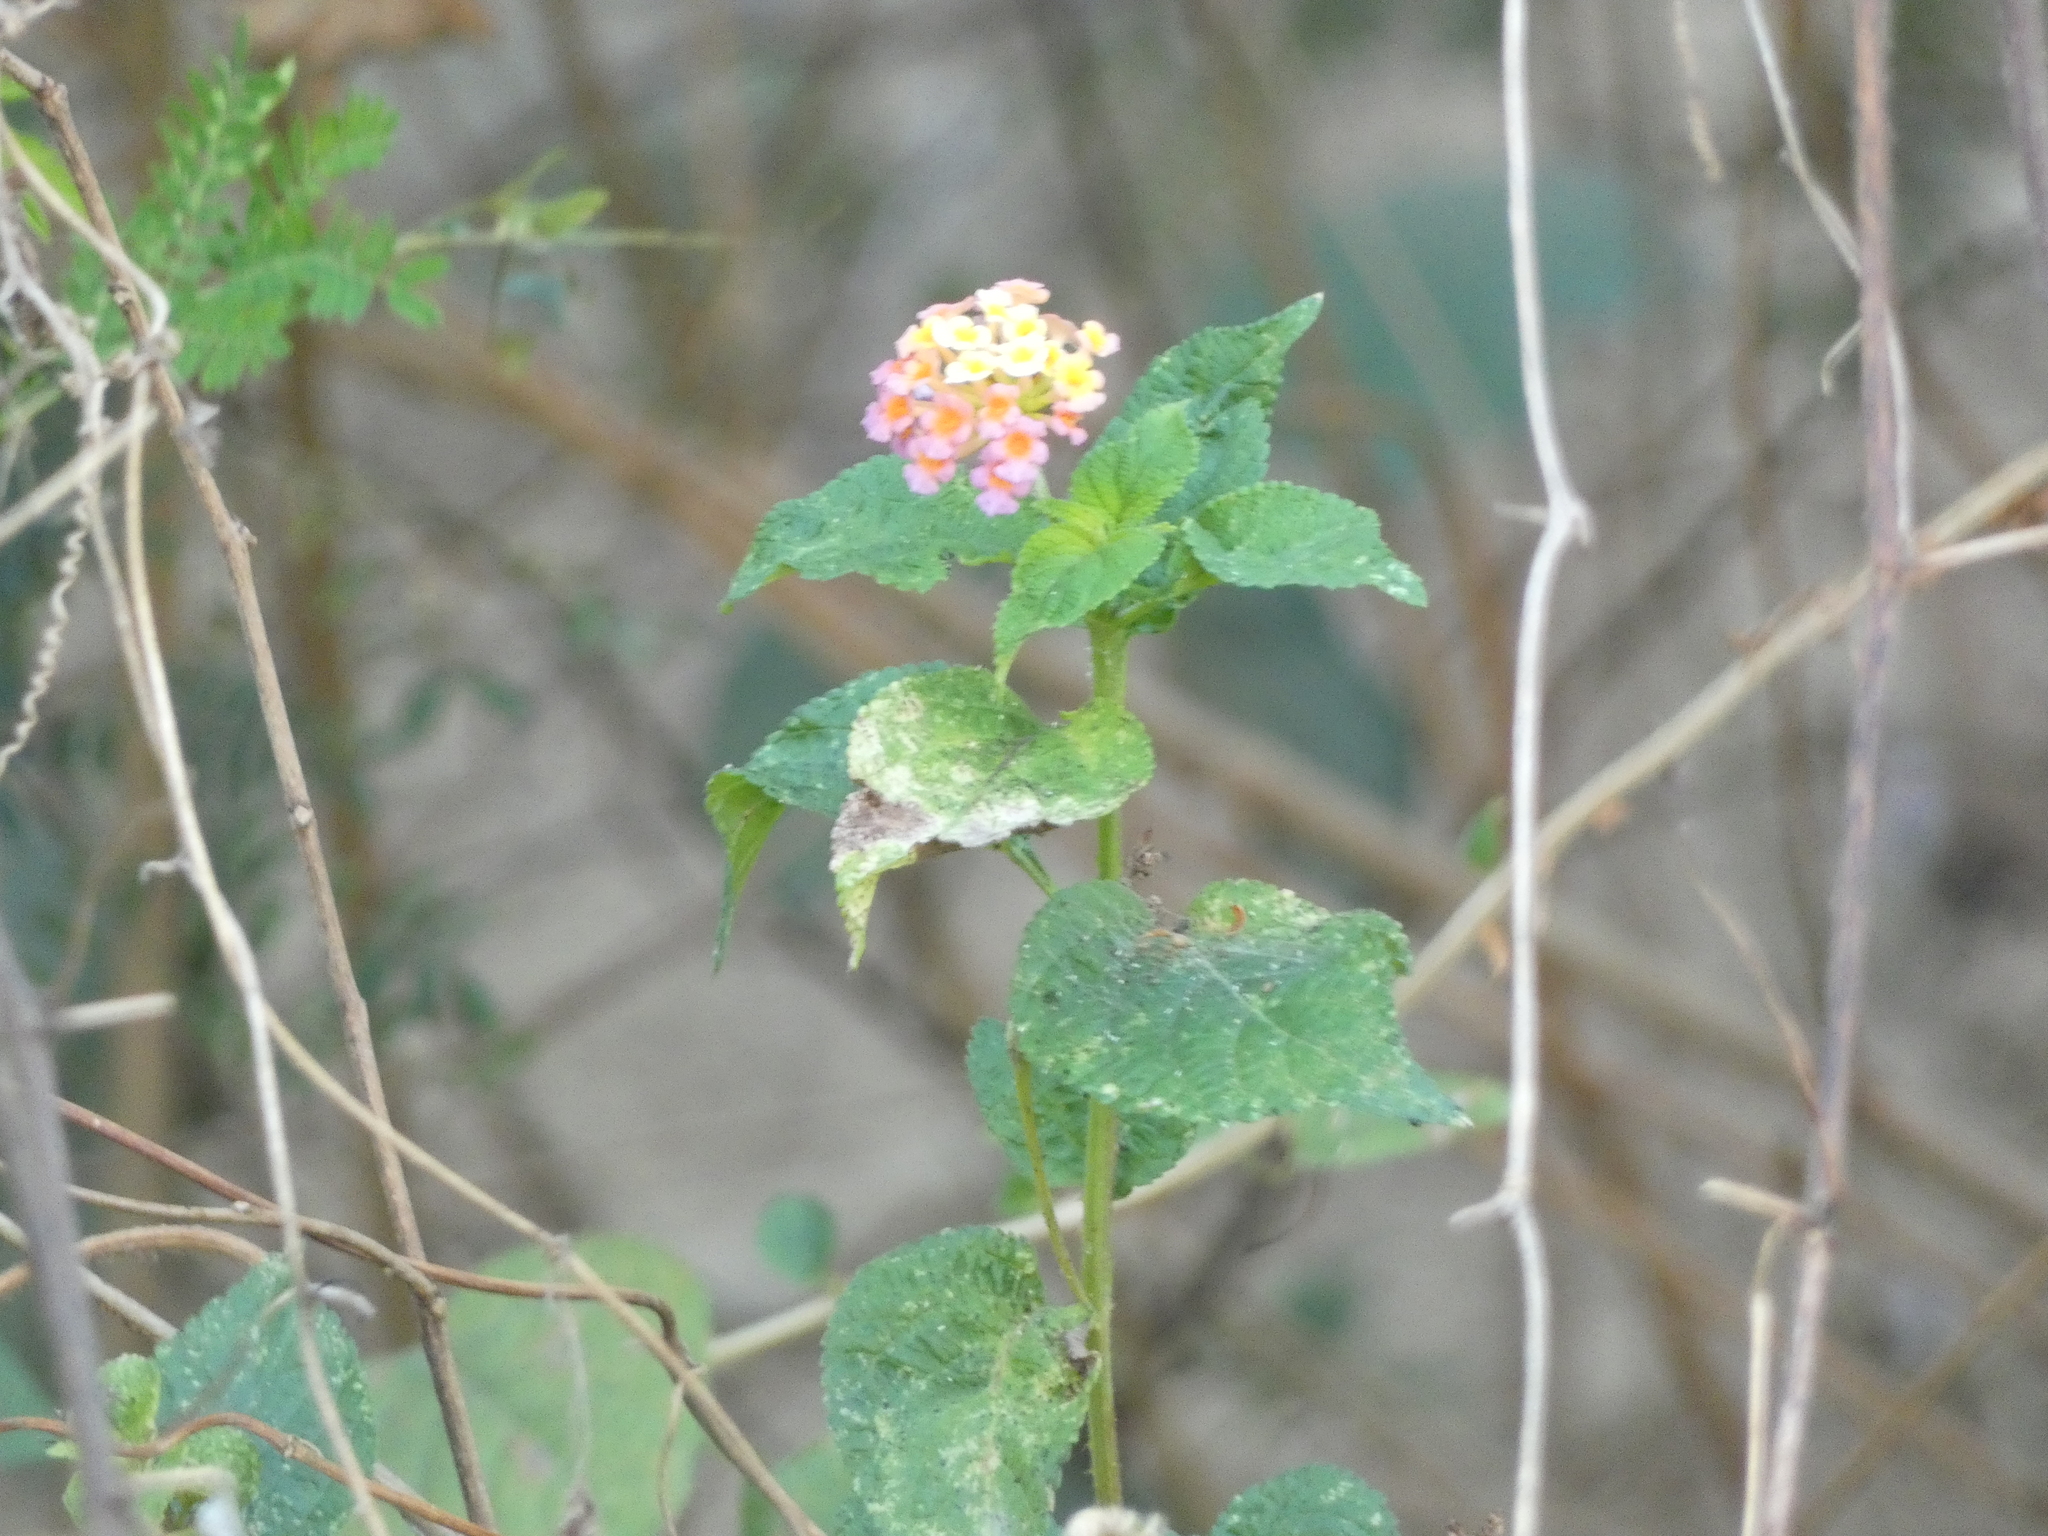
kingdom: Plantae
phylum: Tracheophyta
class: Magnoliopsida
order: Lamiales
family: Verbenaceae
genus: Lantana
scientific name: Lantana camara
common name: Lantana
